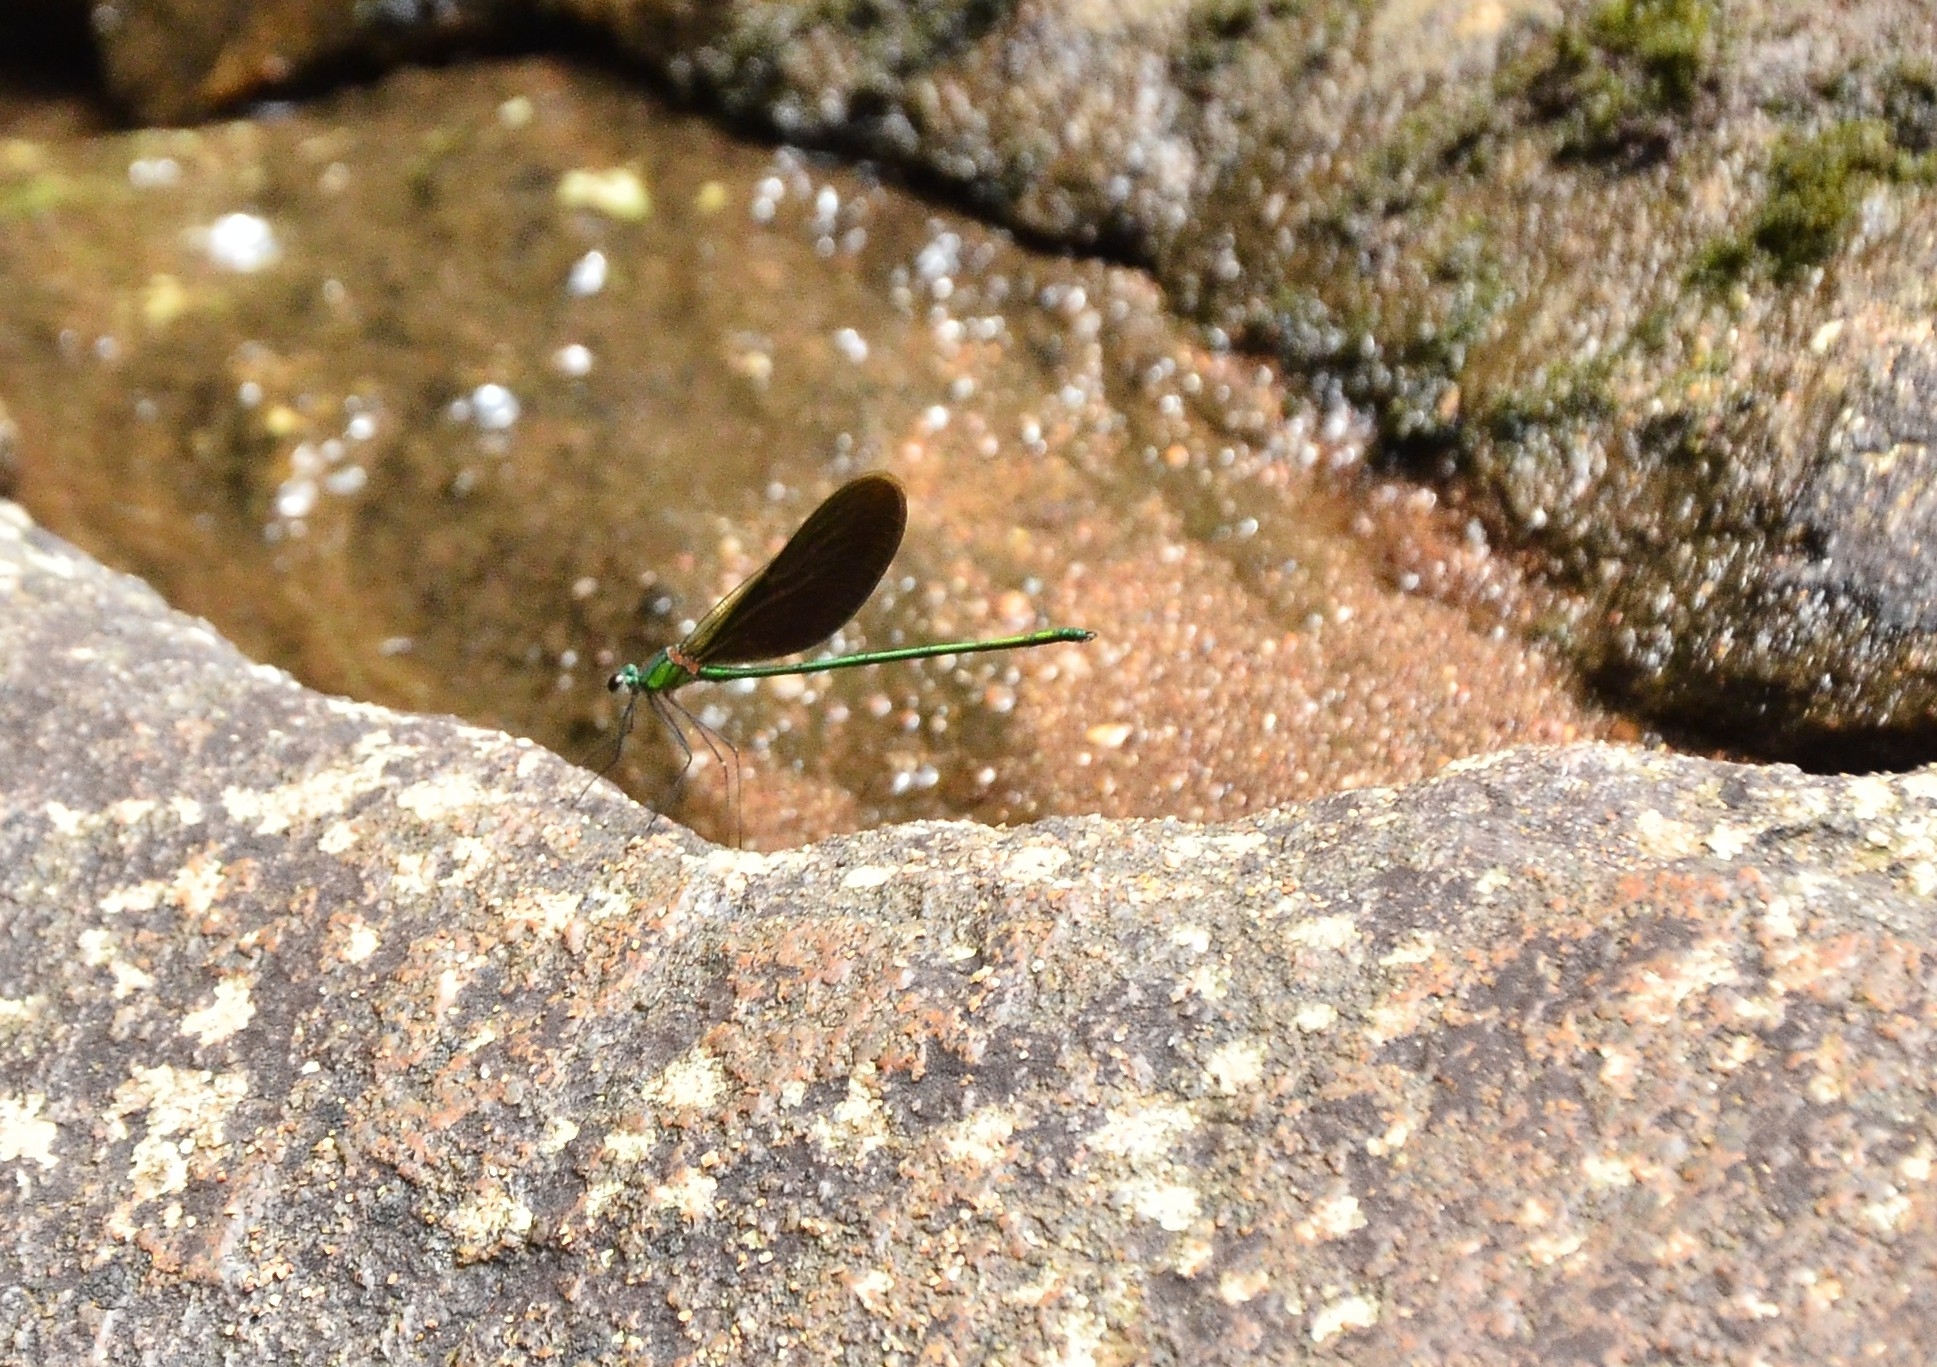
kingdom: Animalia
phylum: Arthropoda
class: Insecta
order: Odonata
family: Calopterygidae
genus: Neurobasis
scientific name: Neurobasis chinensis
